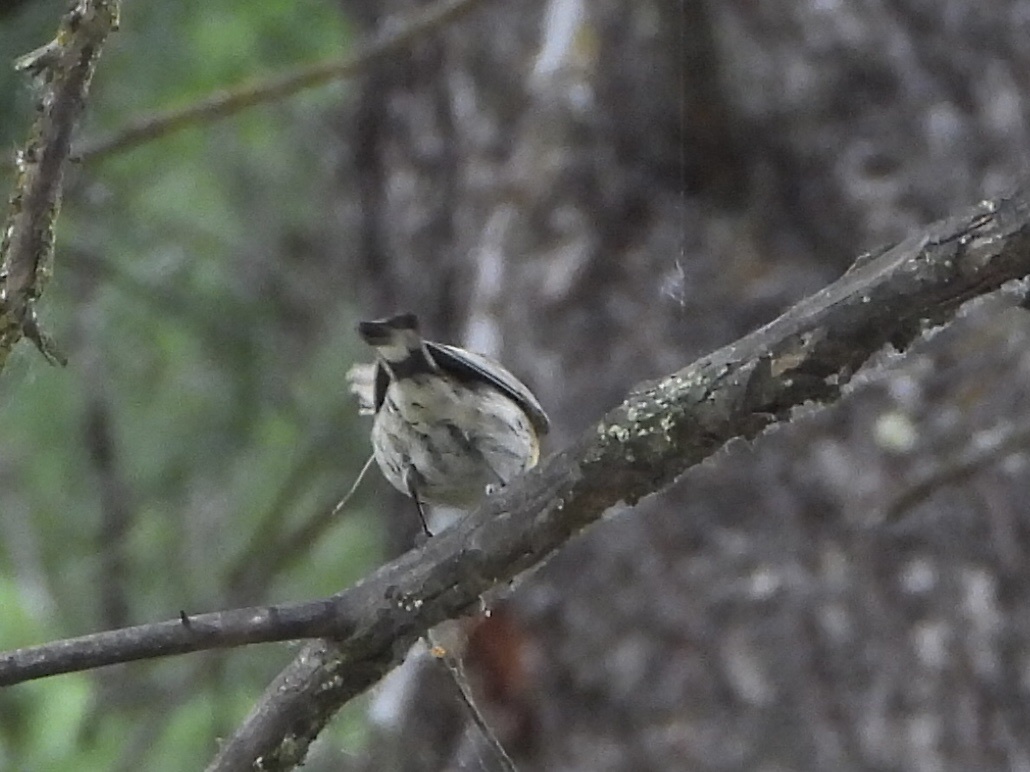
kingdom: Animalia
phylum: Chordata
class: Aves
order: Passeriformes
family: Parulidae
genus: Setophaga
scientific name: Setophaga coronata
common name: Myrtle warbler
